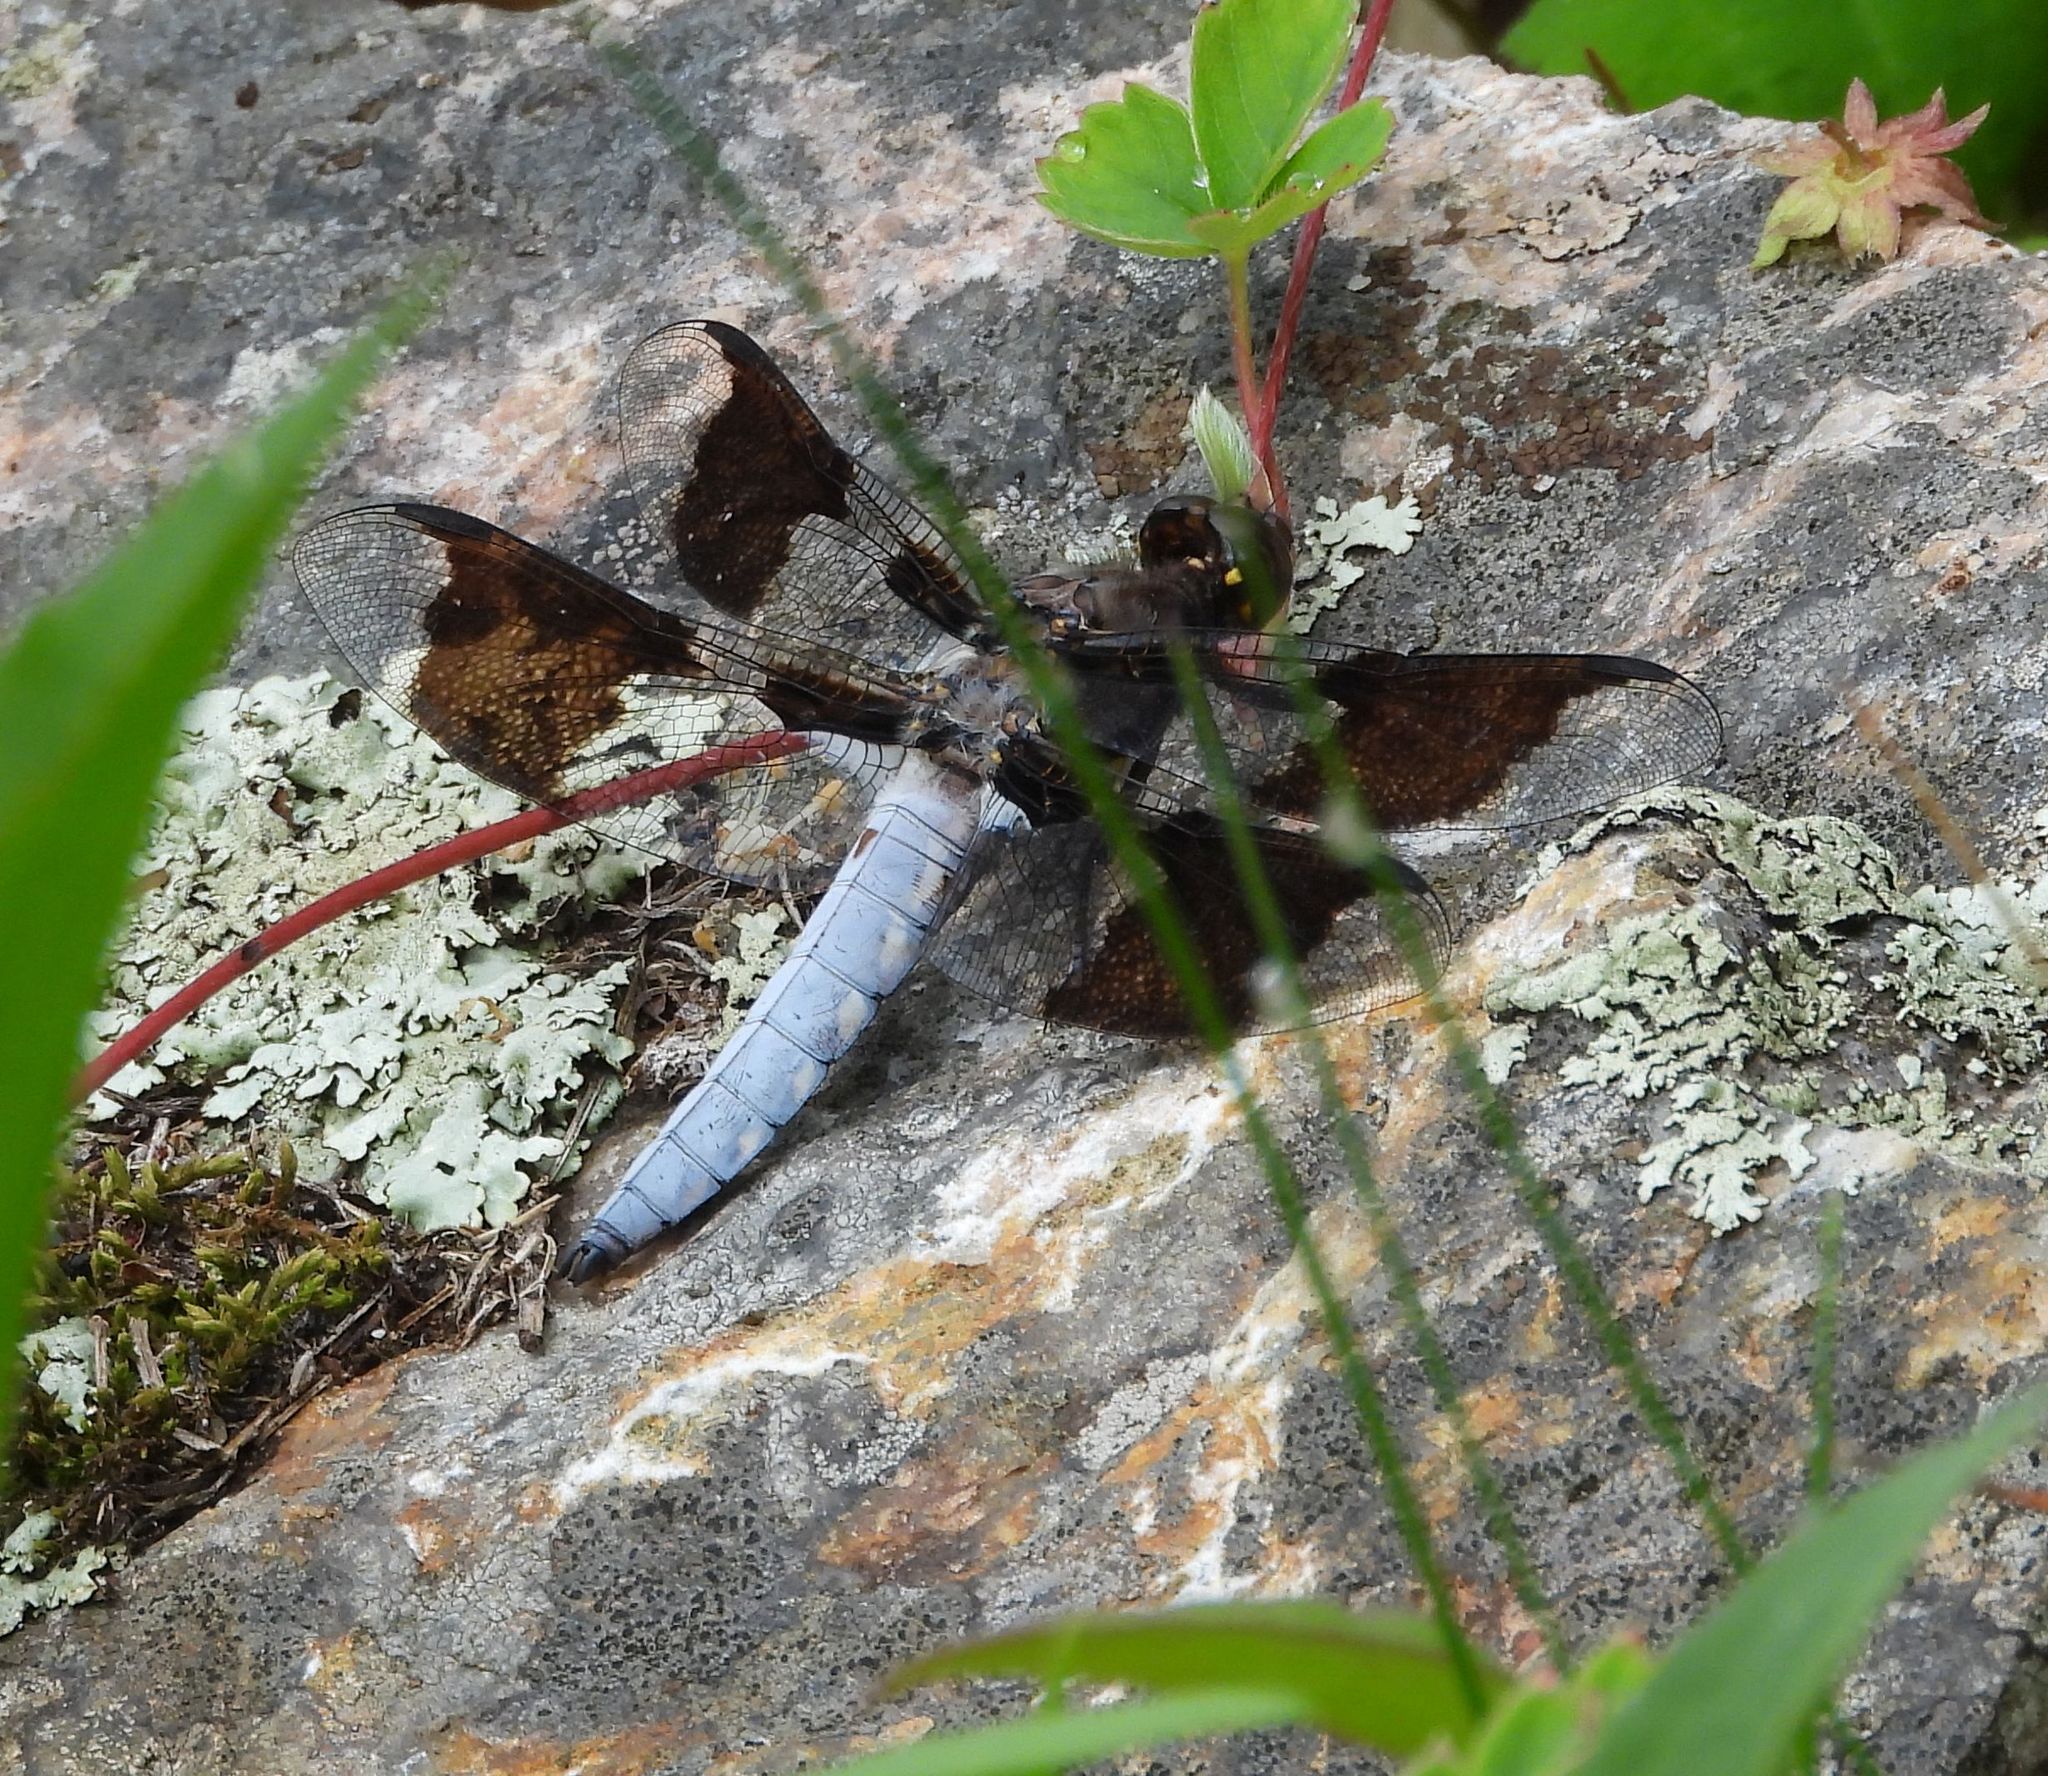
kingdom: Animalia
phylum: Arthropoda
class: Insecta
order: Odonata
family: Libellulidae
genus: Plathemis
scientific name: Plathemis lydia
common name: Common whitetail
